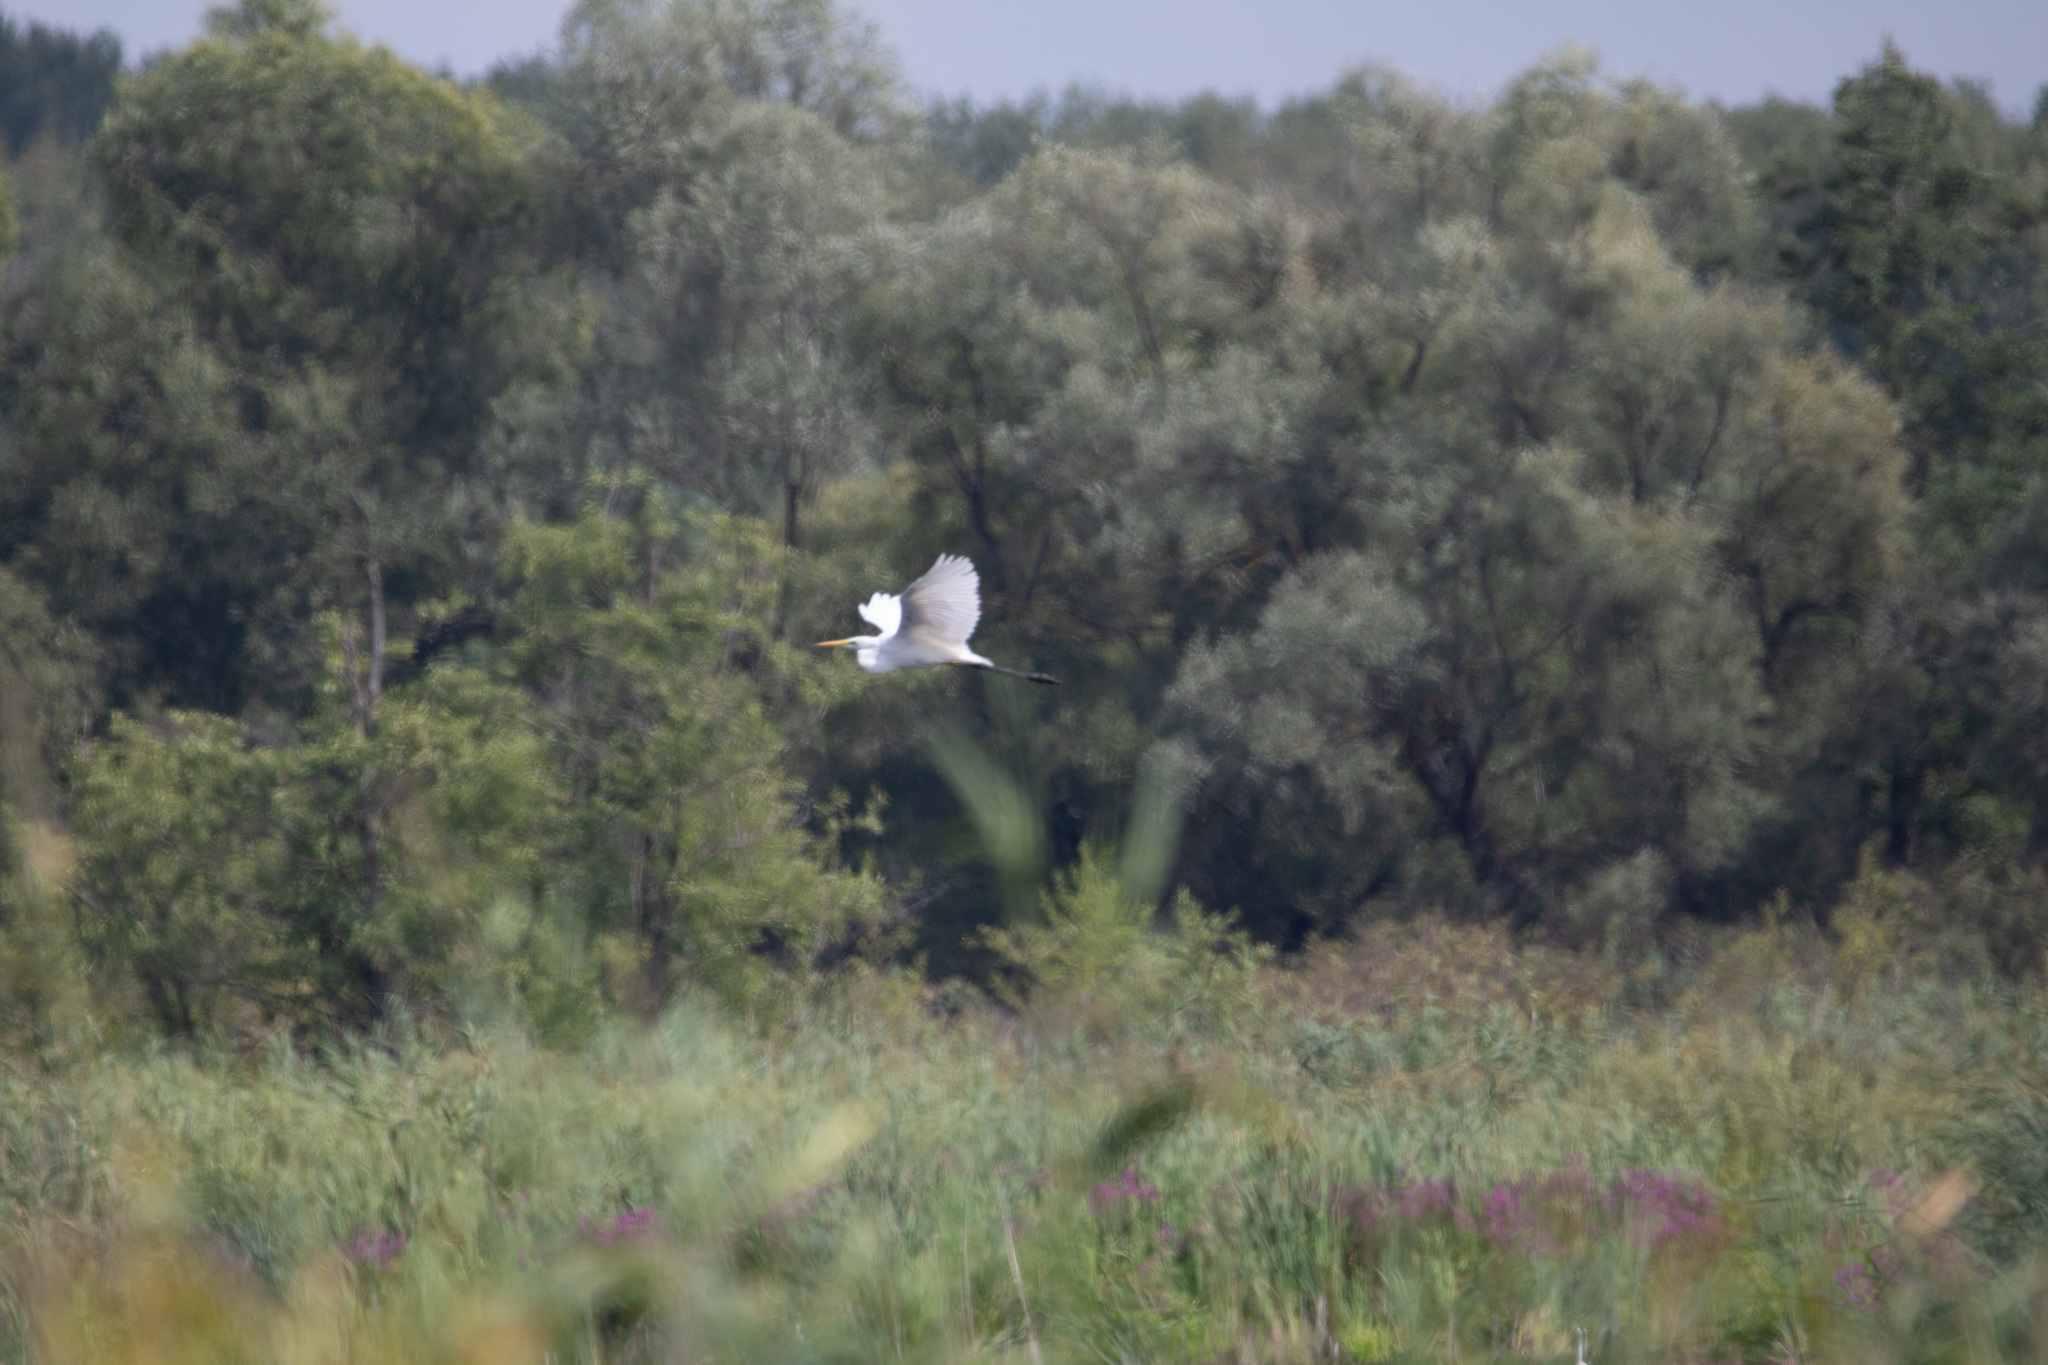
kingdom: Animalia
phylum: Chordata
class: Aves
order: Pelecaniformes
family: Ardeidae
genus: Ardea
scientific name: Ardea alba
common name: Great egret
